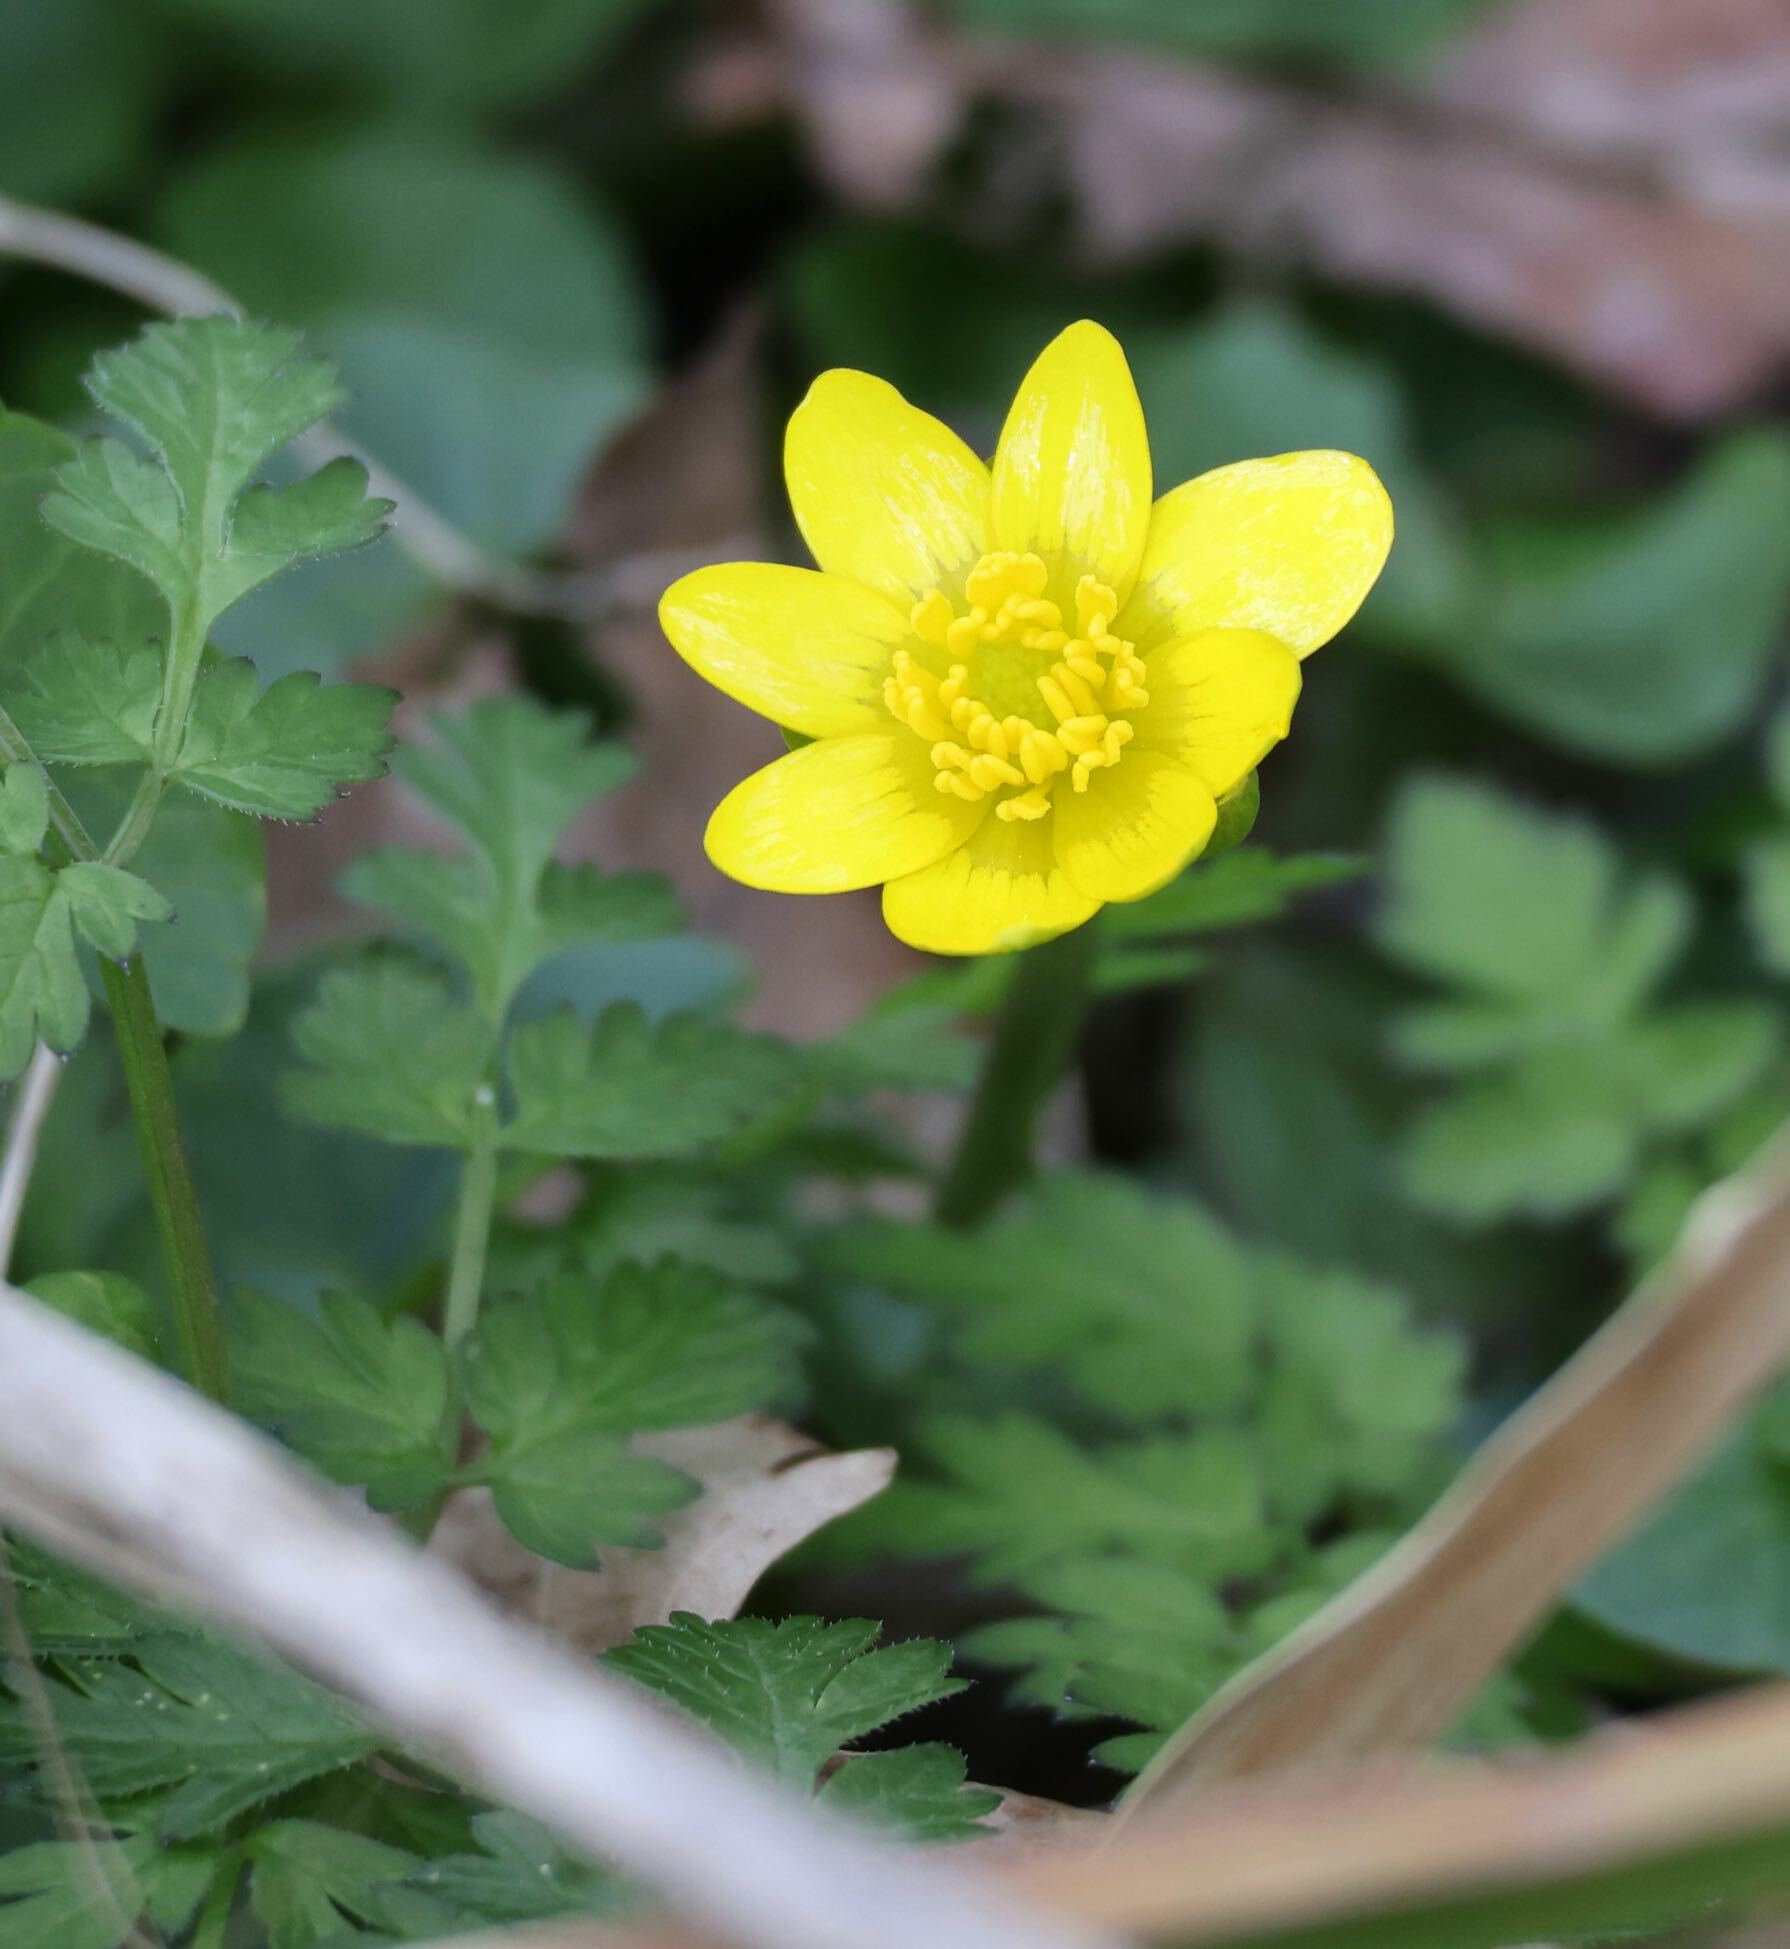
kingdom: Plantae
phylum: Tracheophyta
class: Magnoliopsida
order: Ranunculales
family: Ranunculaceae
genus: Ficaria
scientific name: Ficaria verna
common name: Lesser celandine
